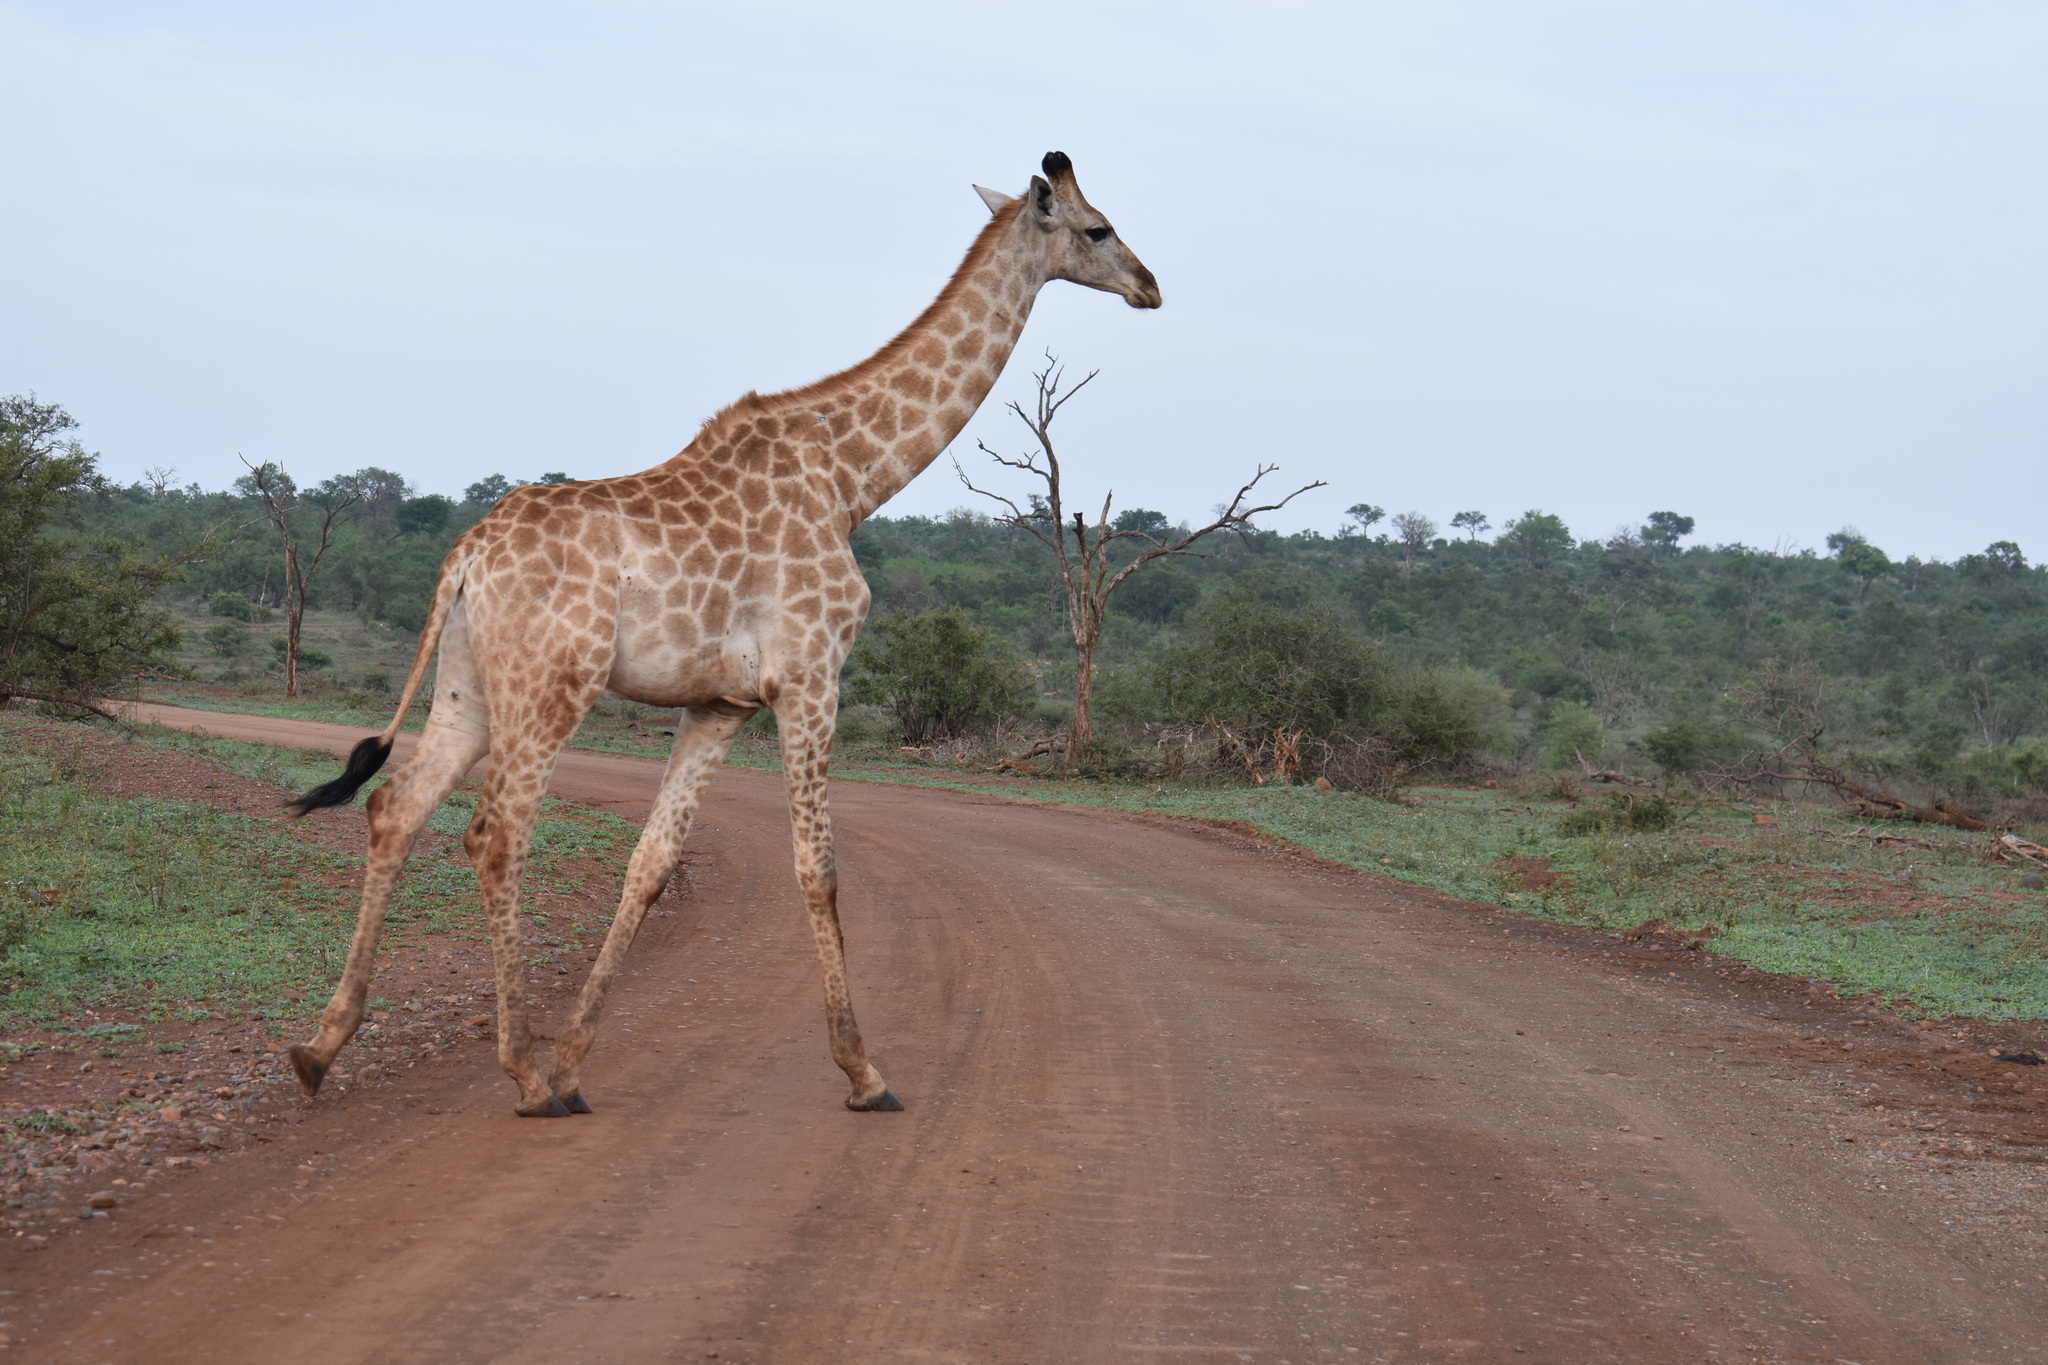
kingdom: Animalia
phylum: Chordata
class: Mammalia
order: Artiodactyla
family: Giraffidae
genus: Giraffa
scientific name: Giraffa giraffa
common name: Southern giraffe
